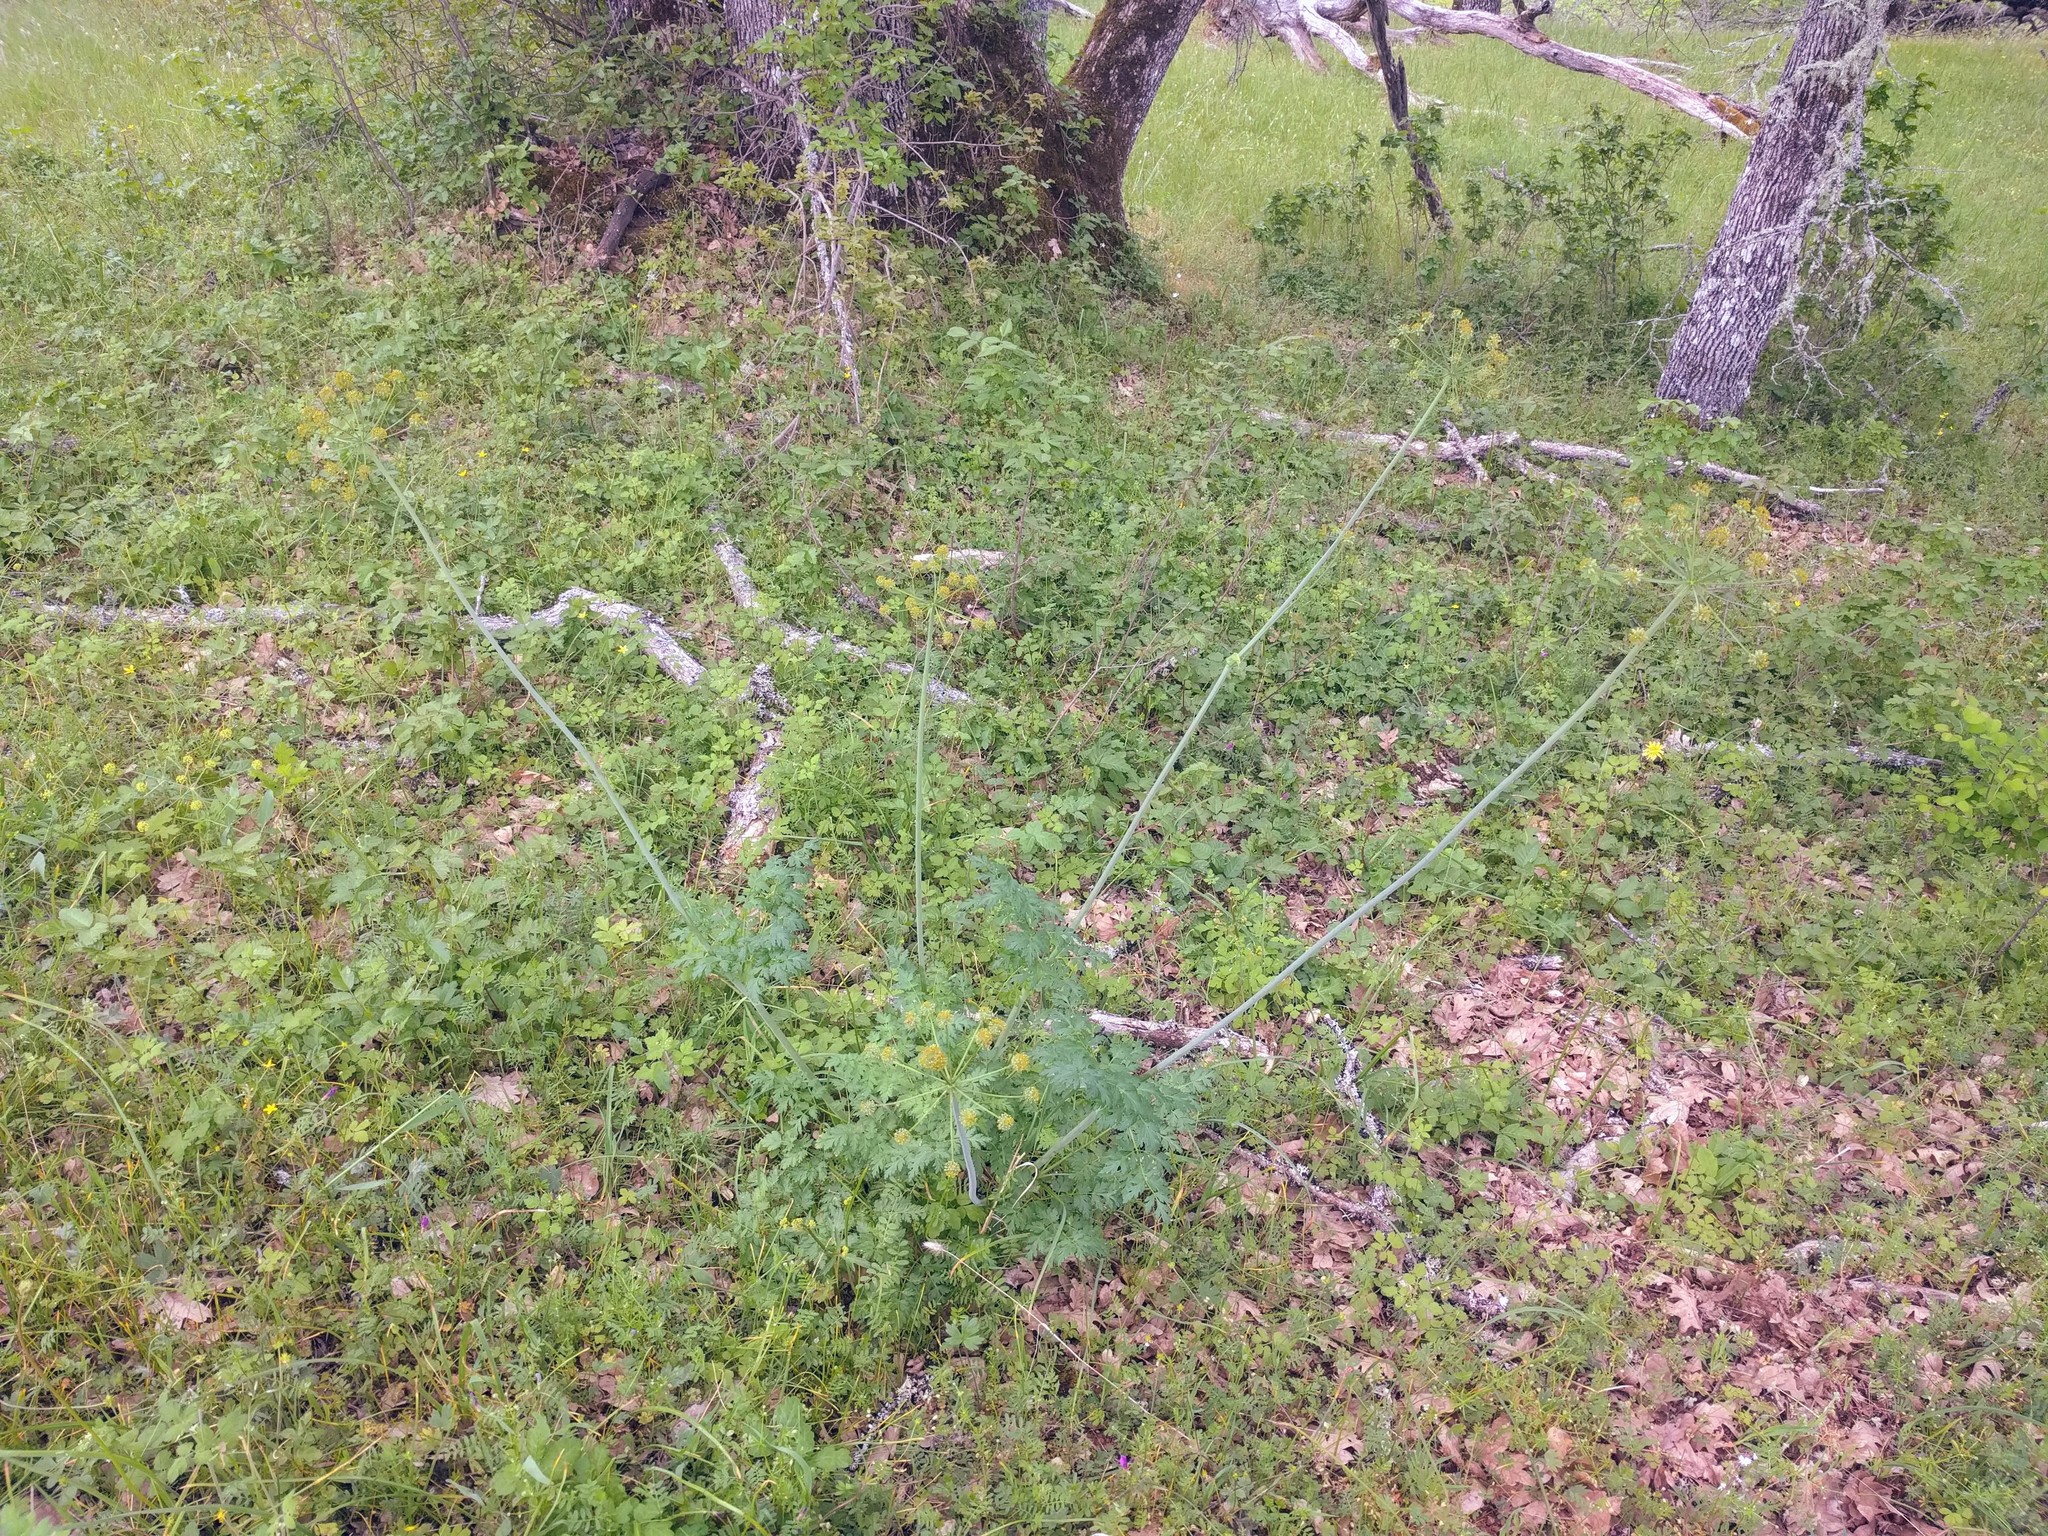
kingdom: Plantae
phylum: Tracheophyta
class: Magnoliopsida
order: Apiales
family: Apiaceae
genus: Lomatium
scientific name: Lomatium dissectum
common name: Lomatium
